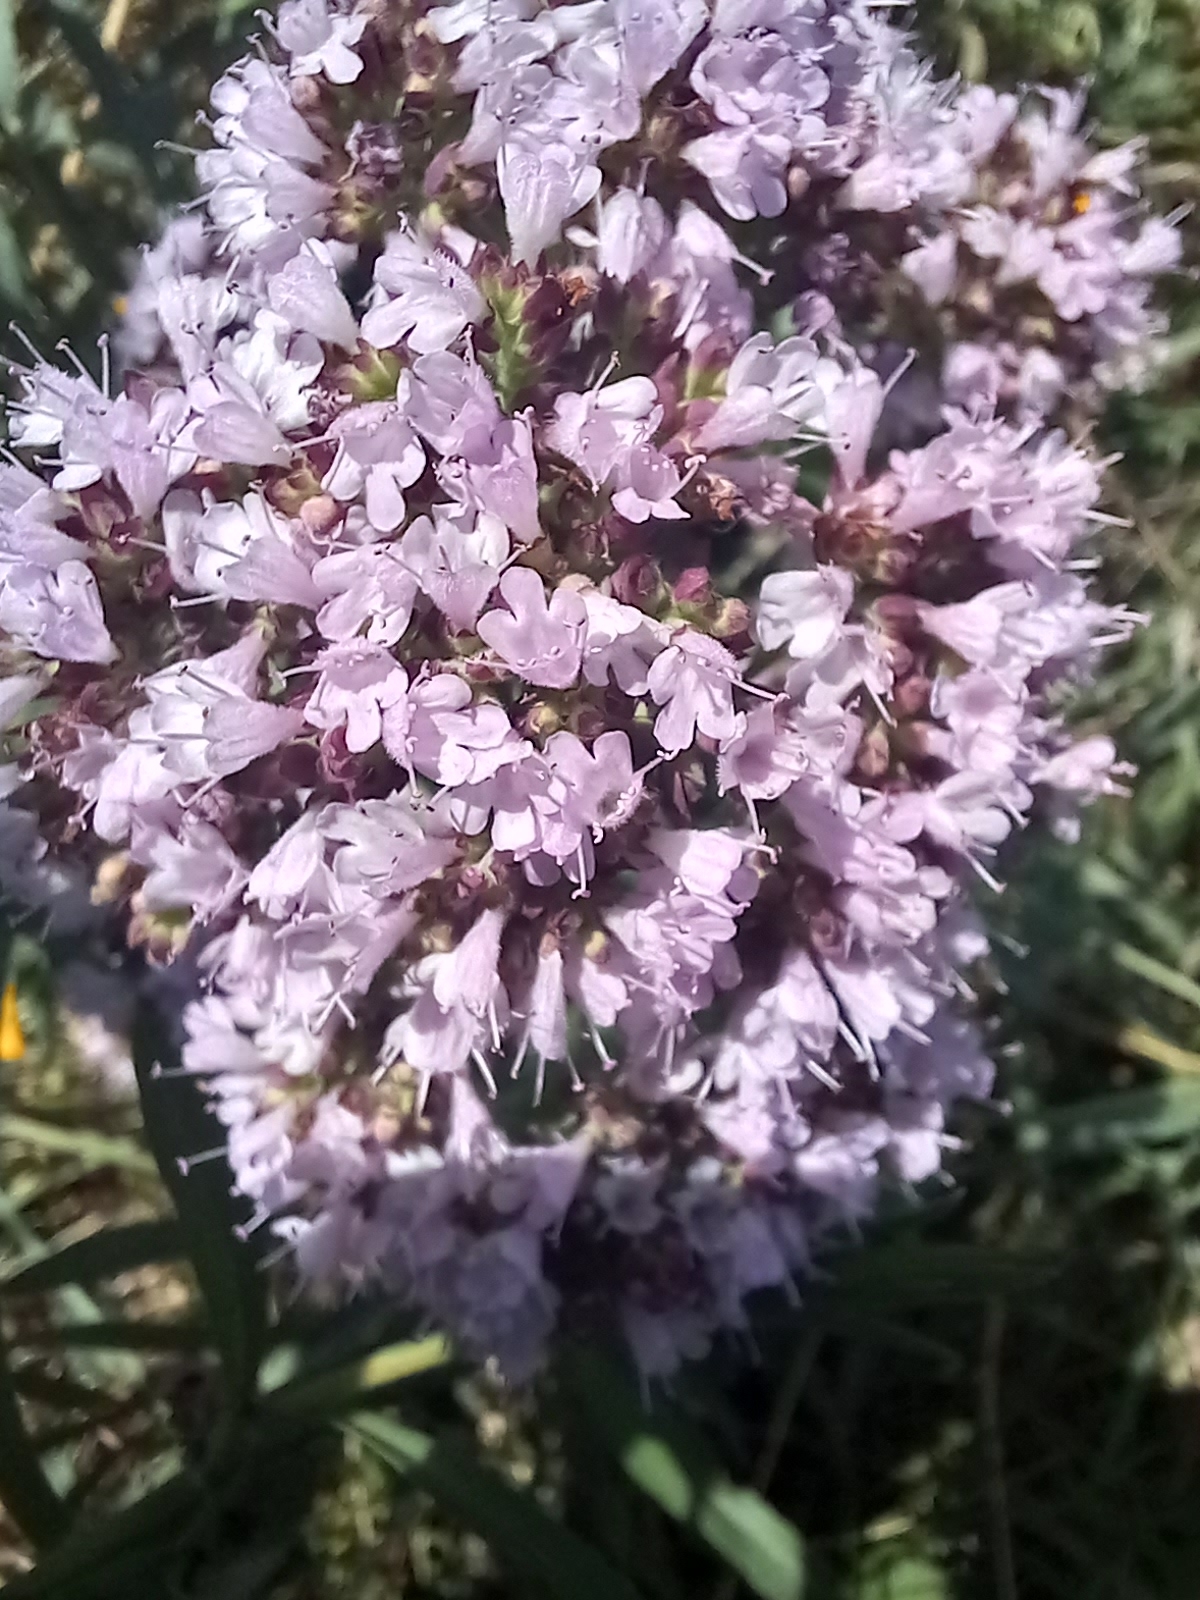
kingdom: Plantae
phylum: Tracheophyta
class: Magnoliopsida
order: Lamiales
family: Lamiaceae
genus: Origanum
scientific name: Origanum vulgare
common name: Wild marjoram
